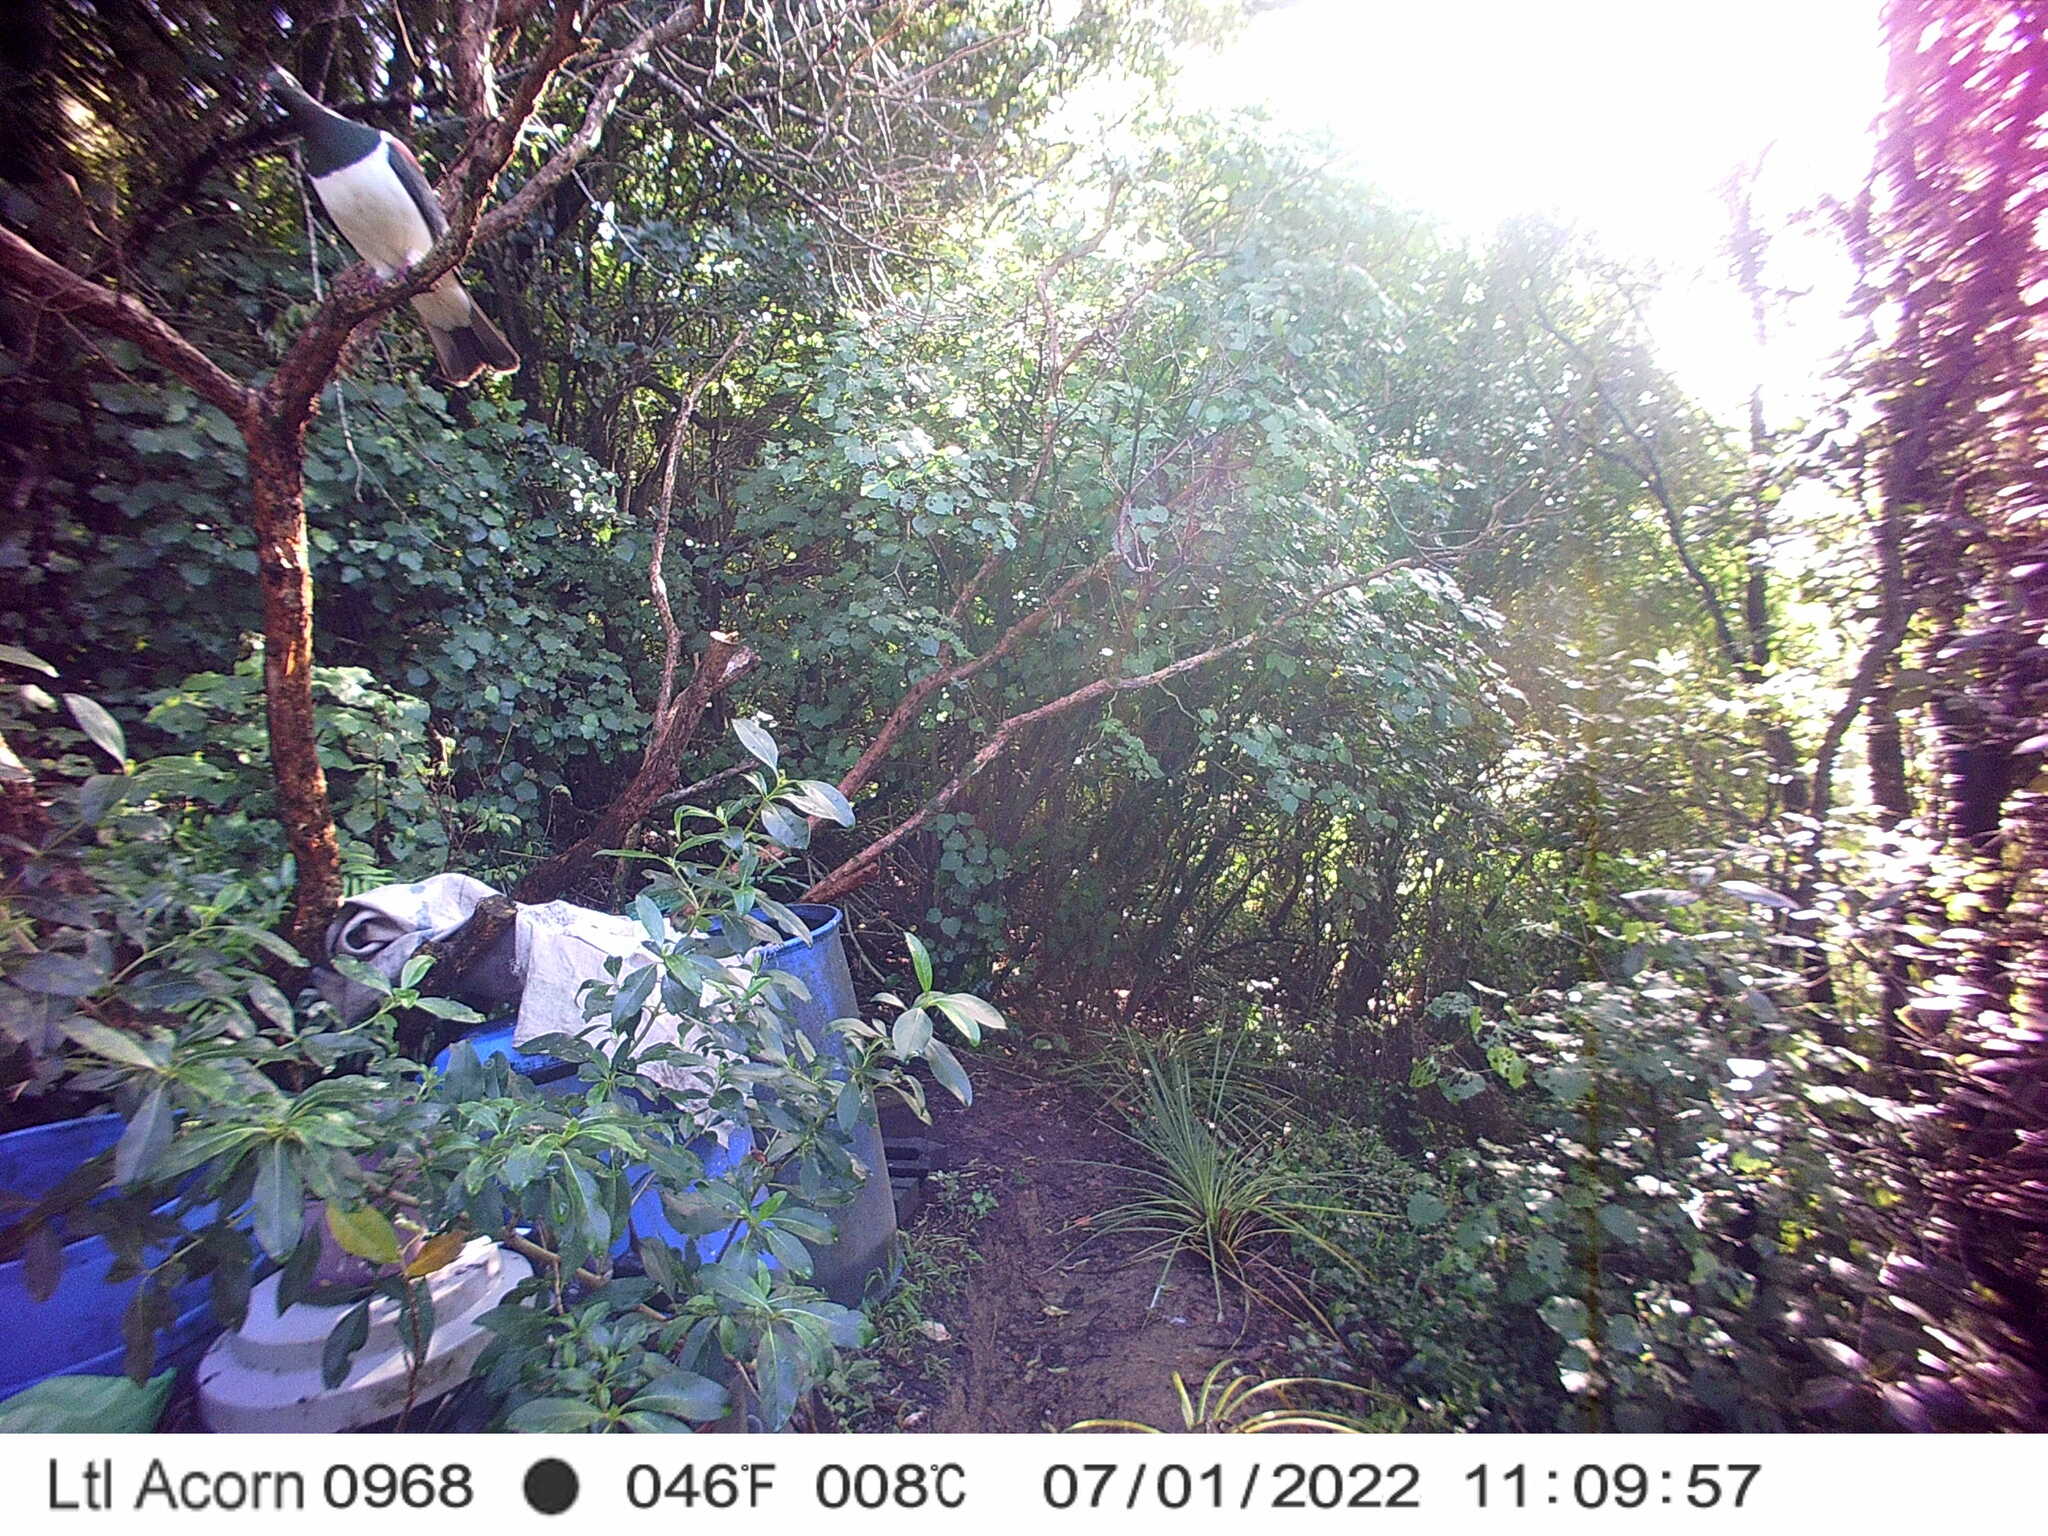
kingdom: Animalia
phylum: Chordata
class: Aves
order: Columbiformes
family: Columbidae
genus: Hemiphaga
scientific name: Hemiphaga novaeseelandiae
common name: New zealand pigeon
